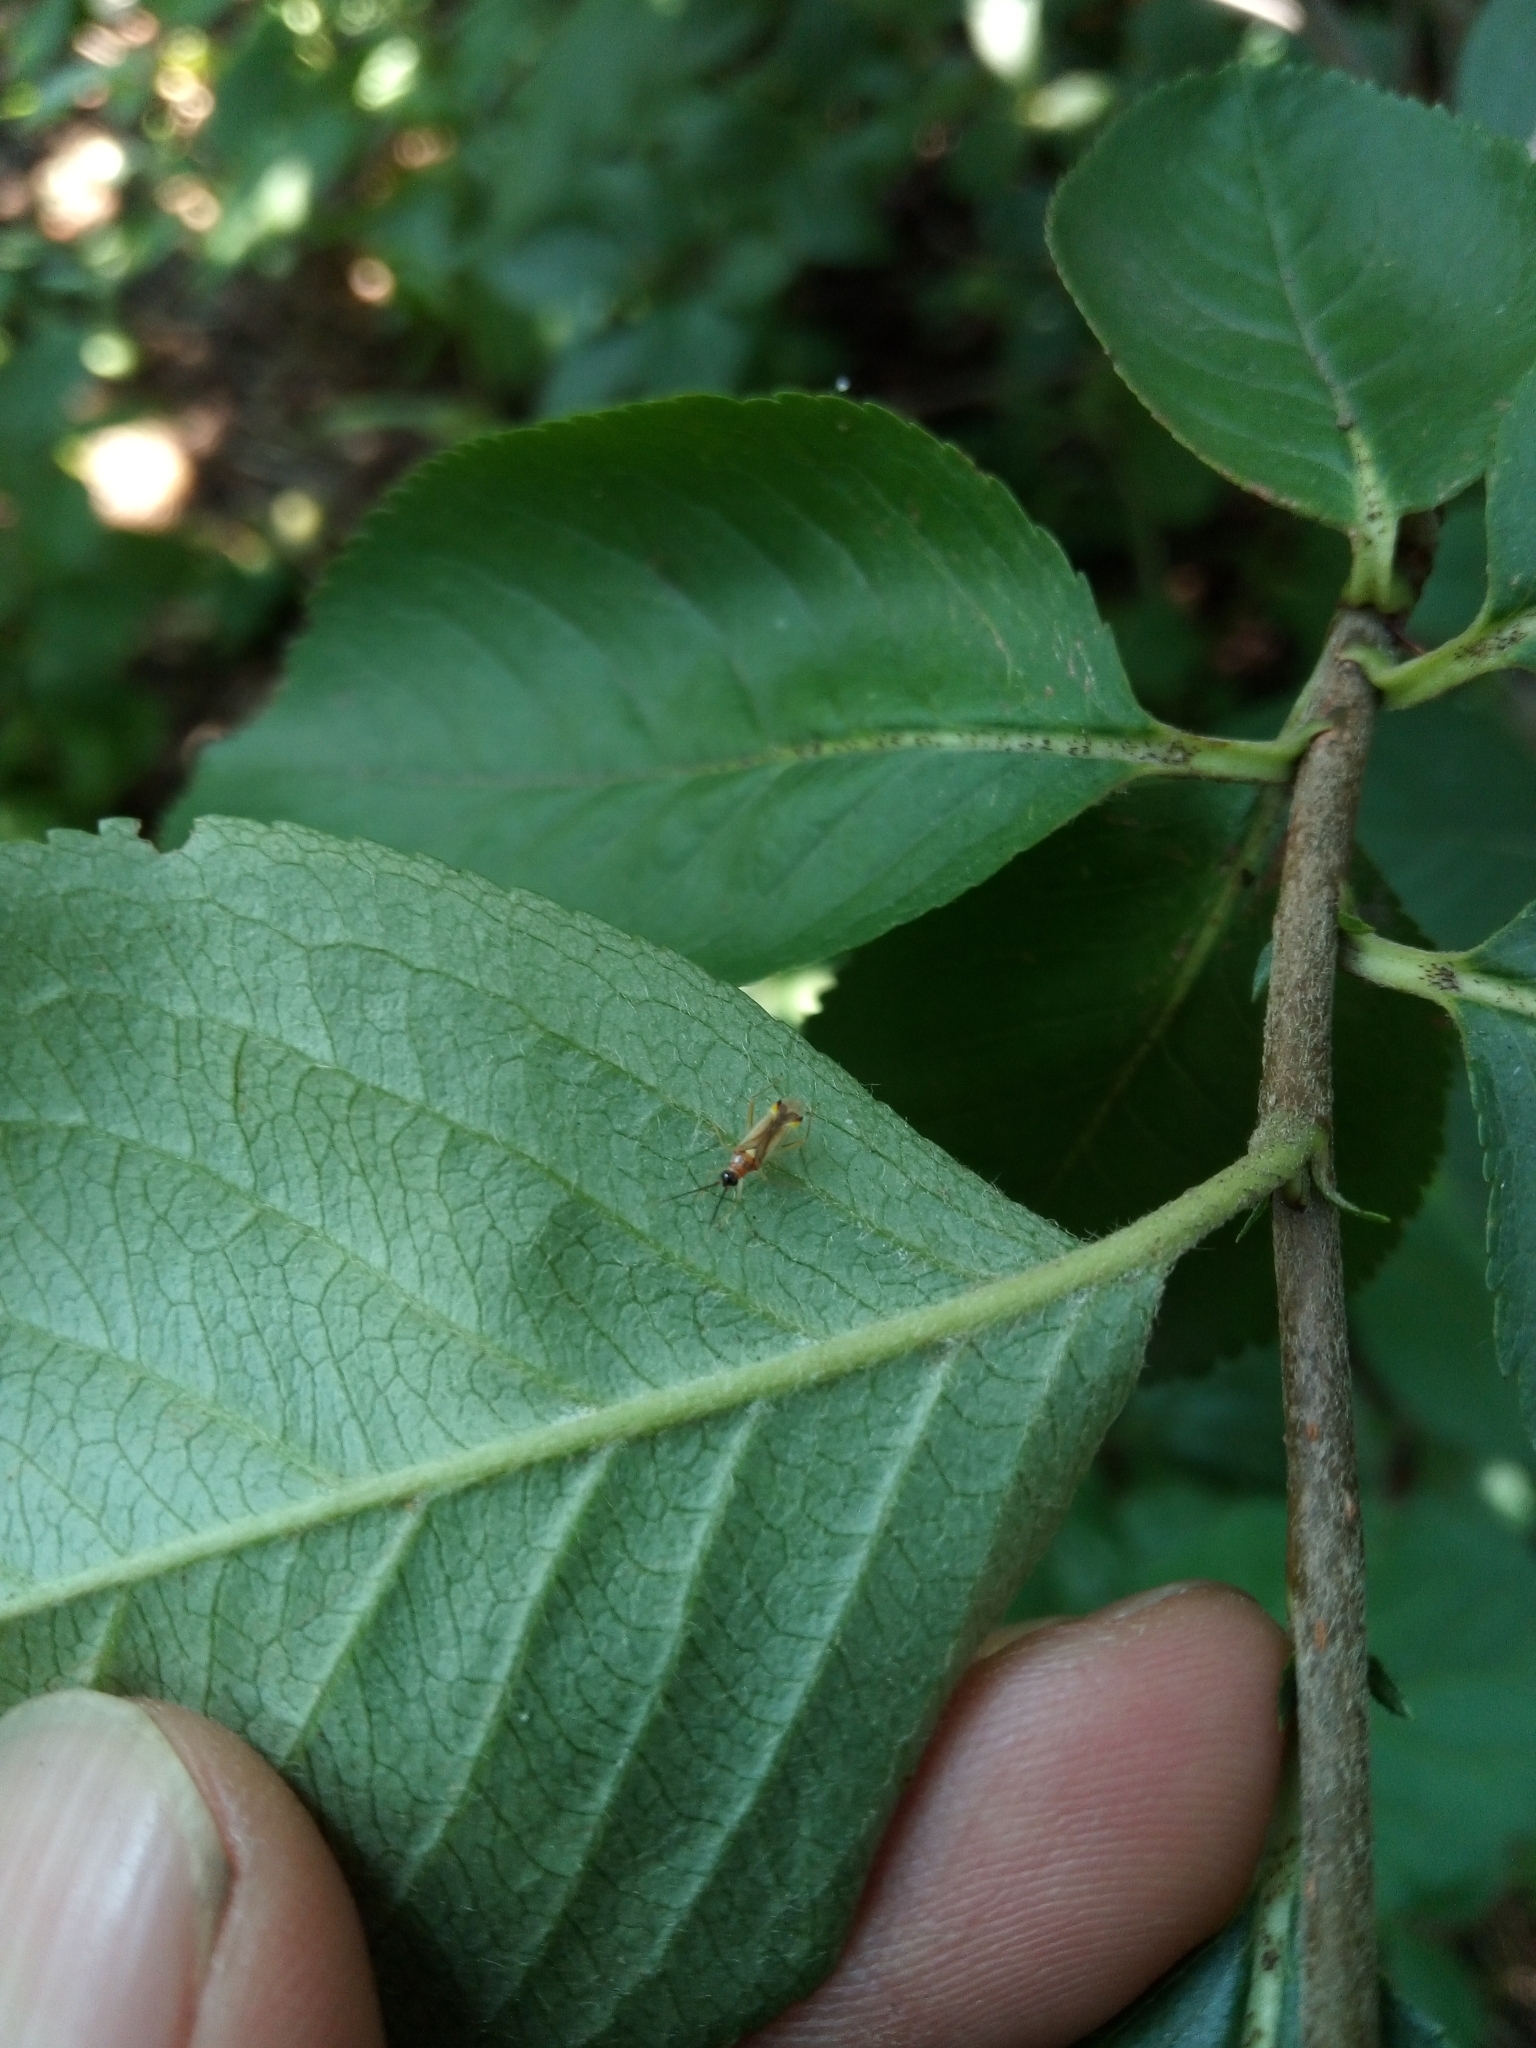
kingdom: Animalia
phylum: Arthropoda
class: Insecta
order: Hemiptera
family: Miridae
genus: Campyloneura
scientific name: Campyloneura virgula
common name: Predatory bug
